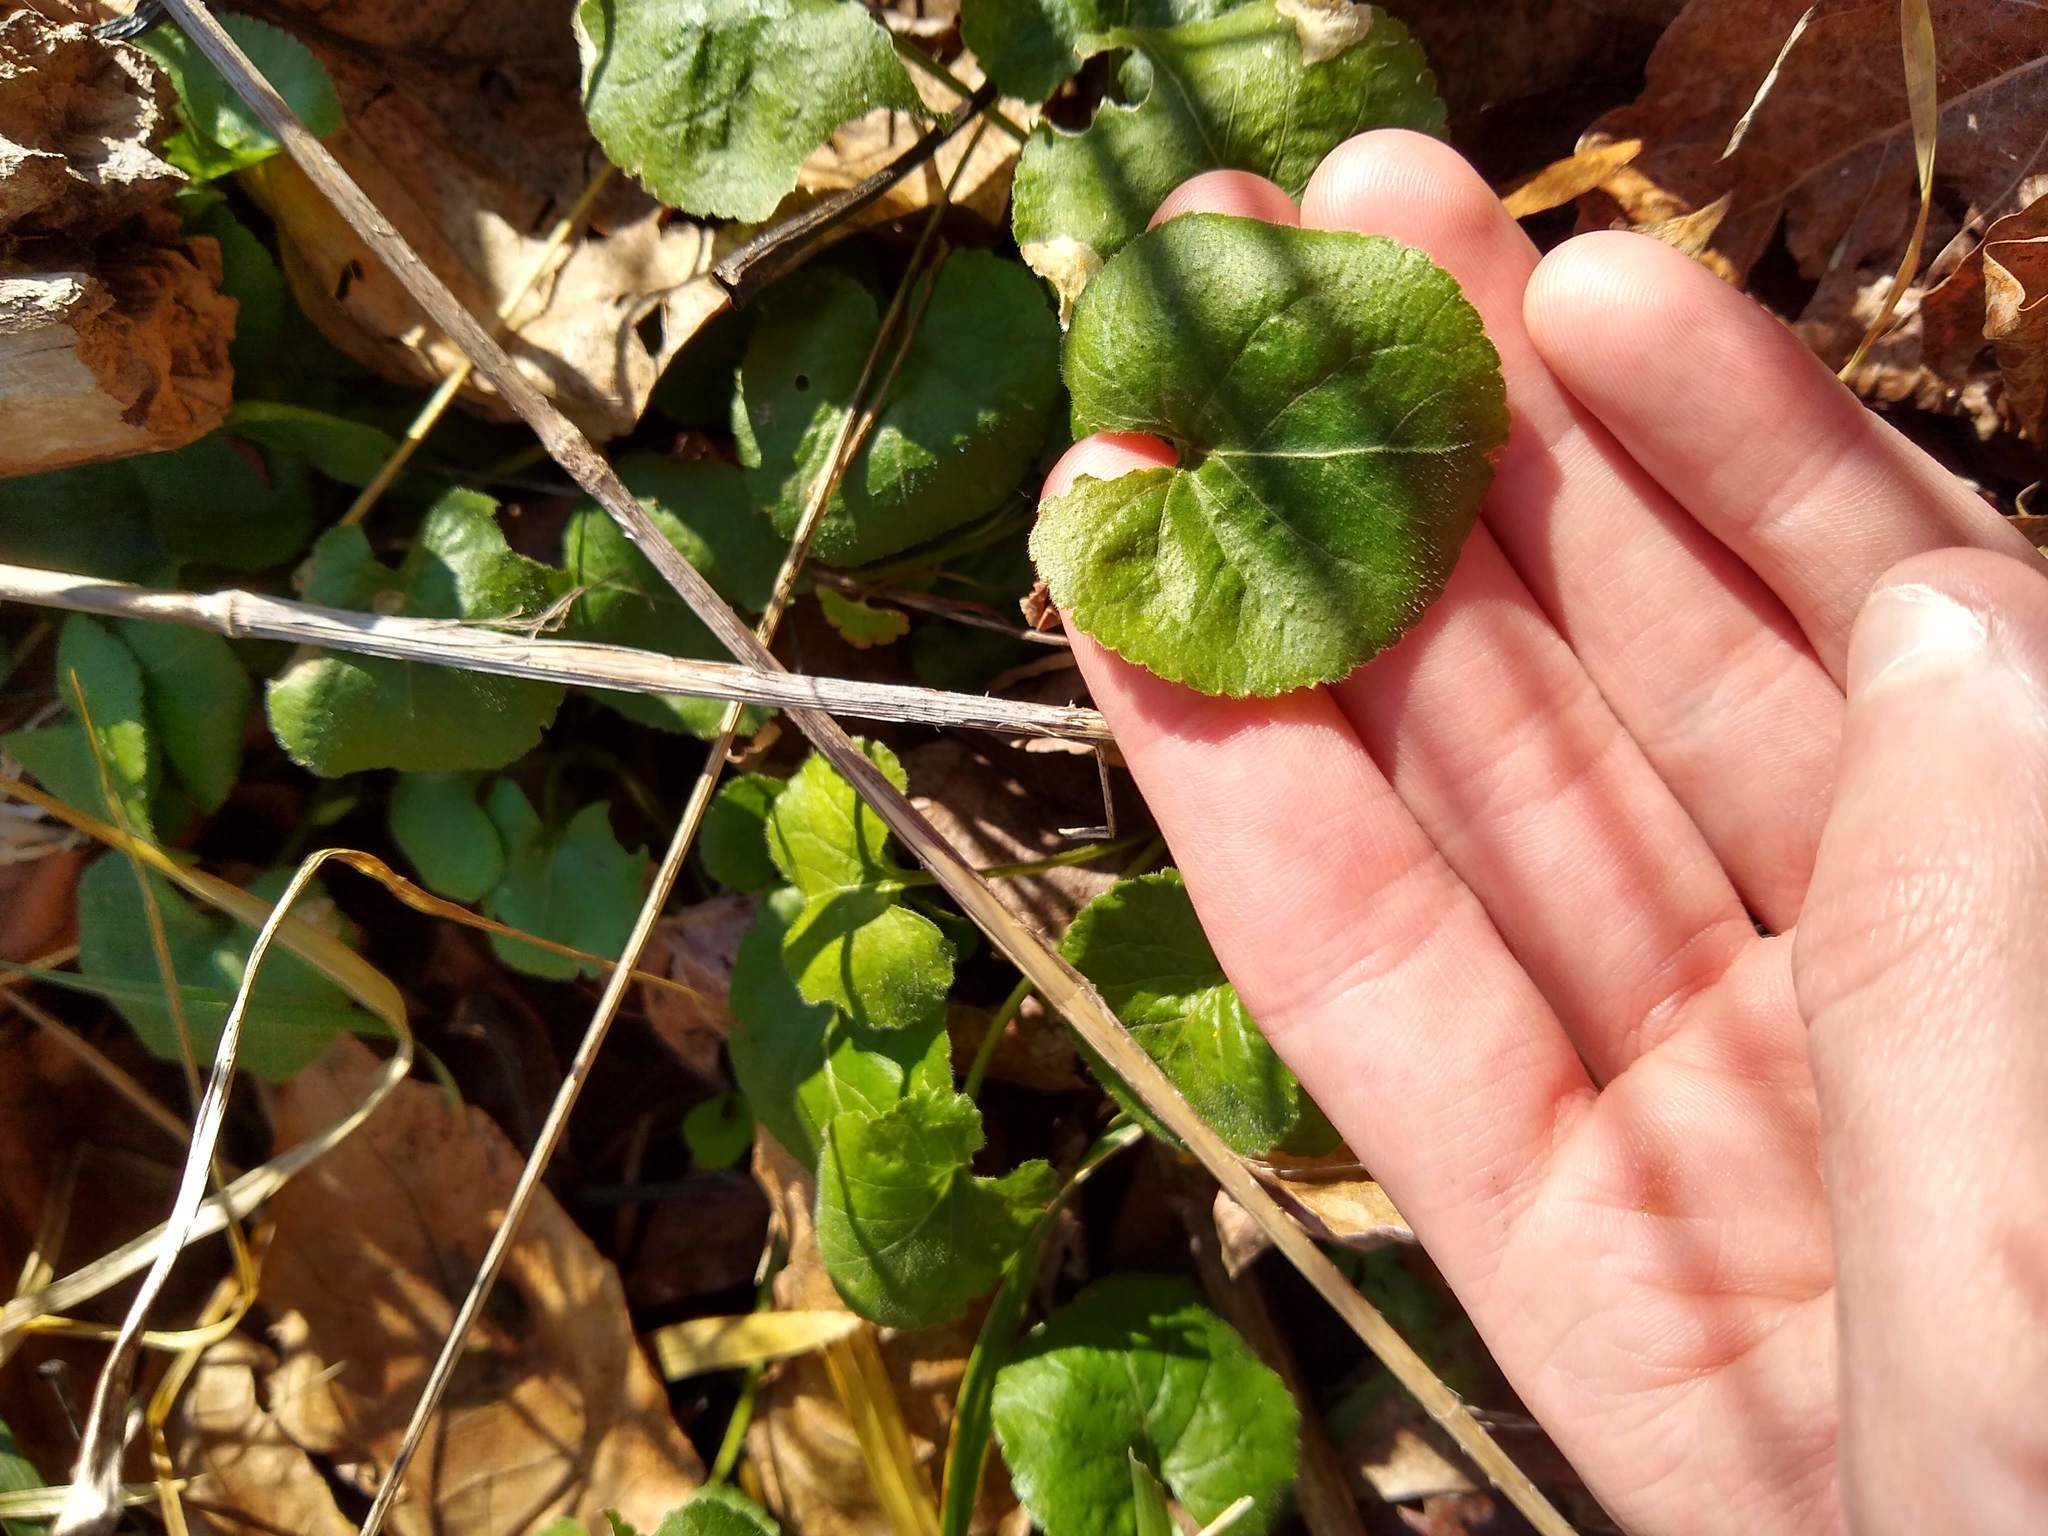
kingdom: Plantae
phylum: Tracheophyta
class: Magnoliopsida
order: Malpighiales
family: Violaceae
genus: Viola
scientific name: Viola odorata
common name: Sweet violet
